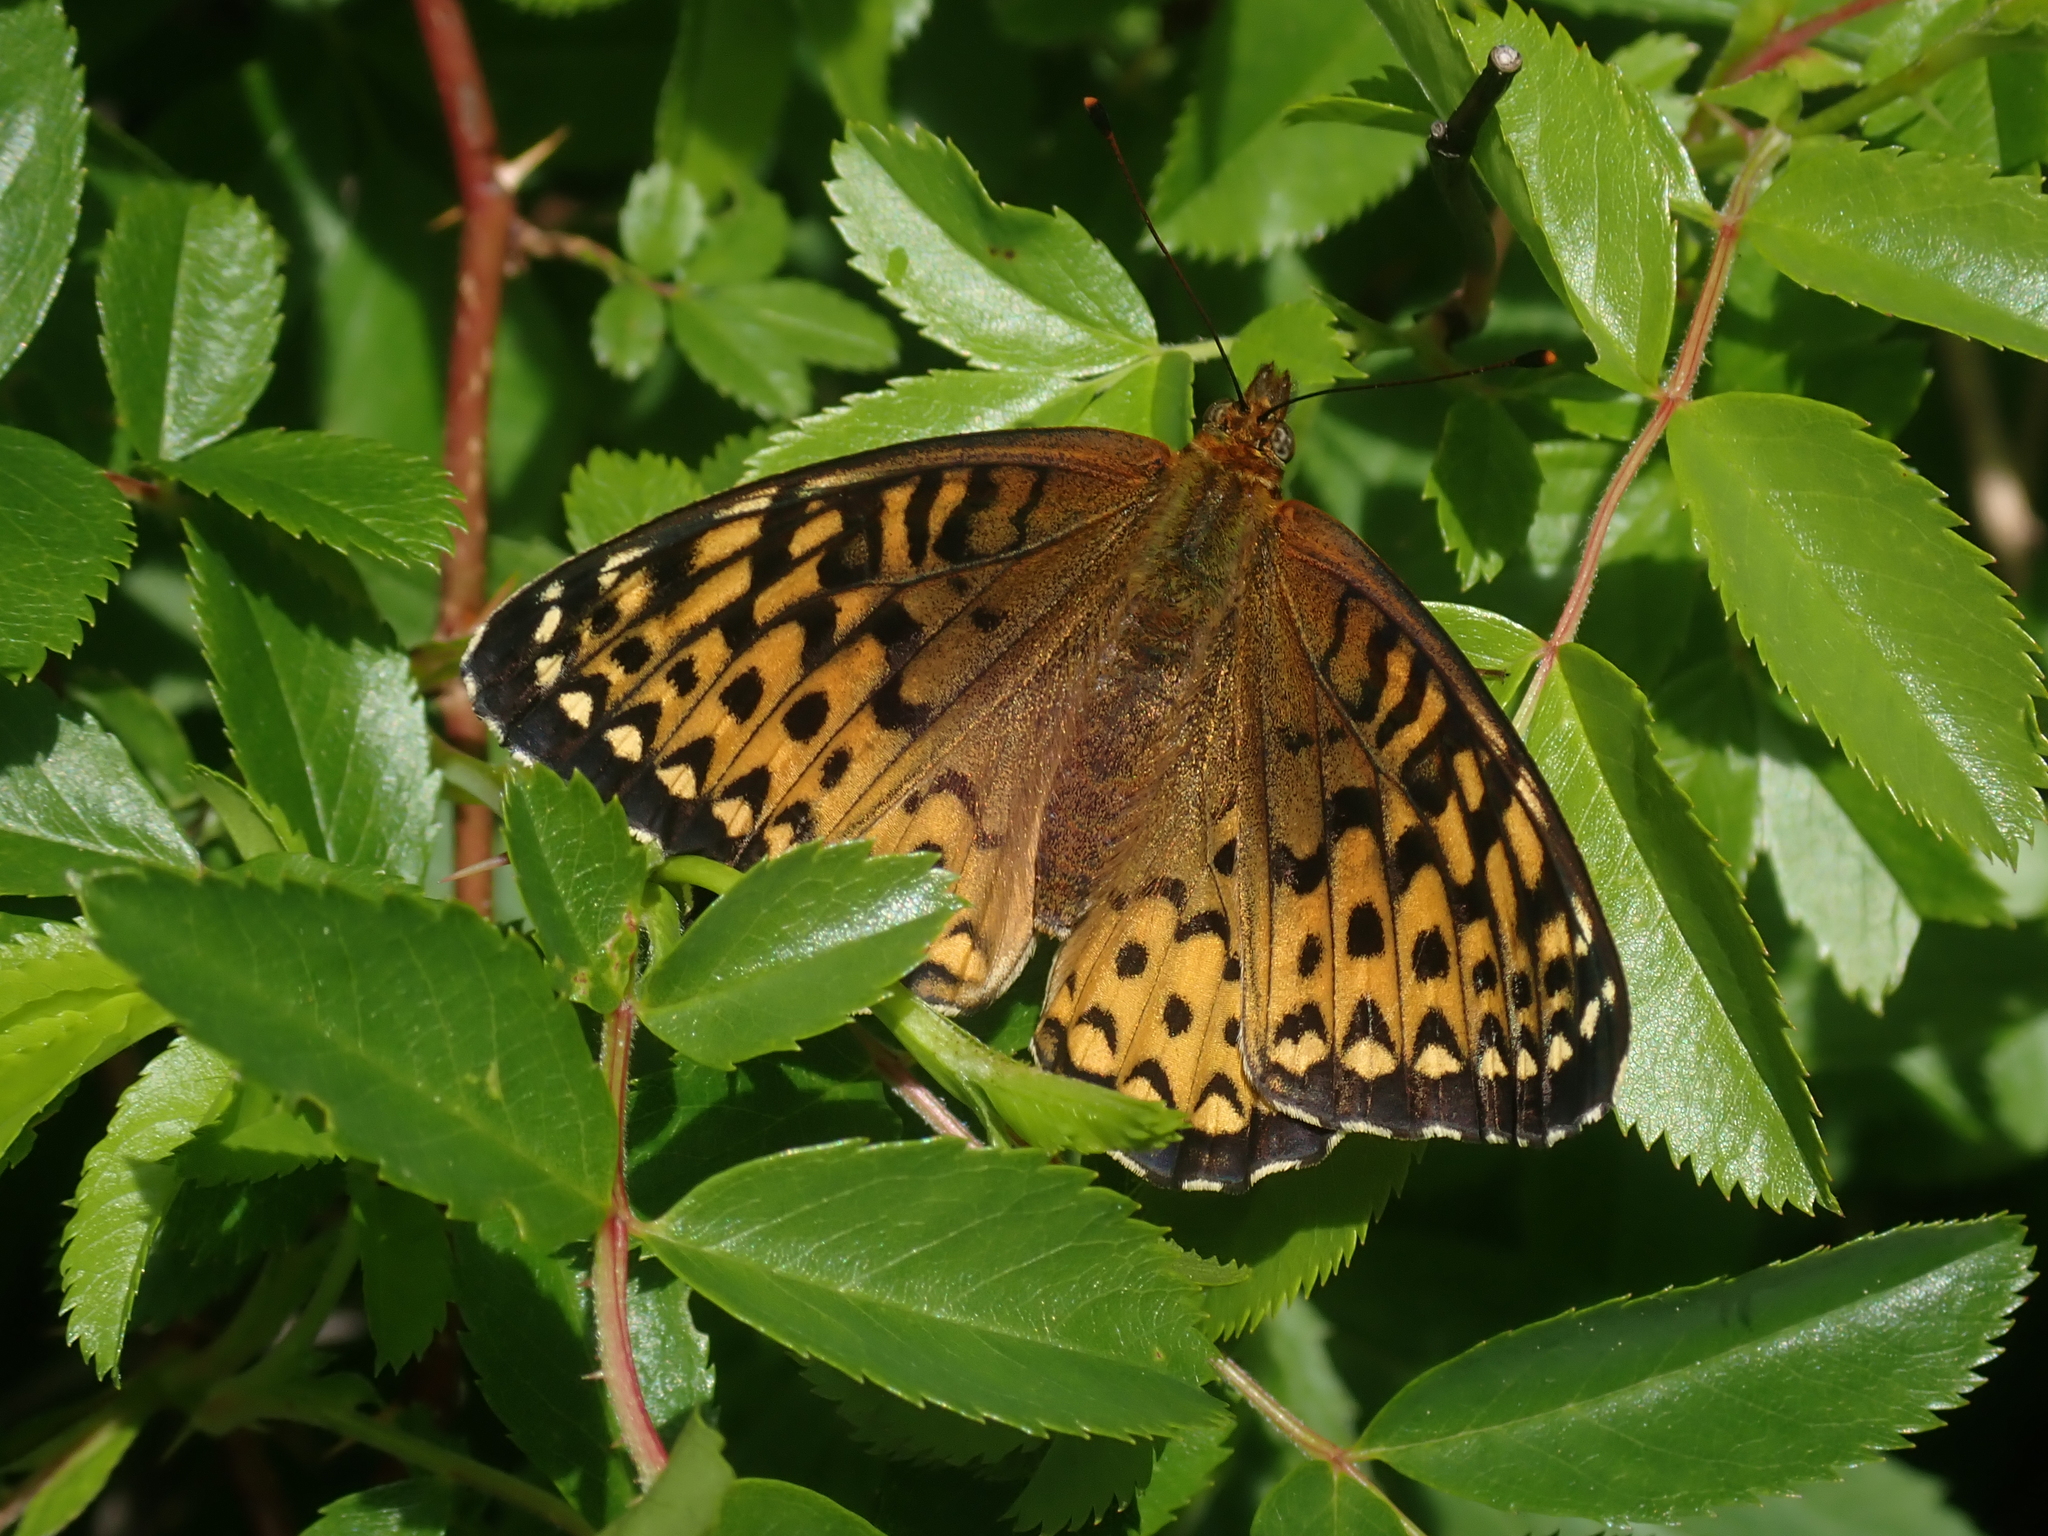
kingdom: Animalia
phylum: Arthropoda
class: Insecta
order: Lepidoptera
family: Nymphalidae
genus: Speyeria
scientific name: Speyeria atlantis
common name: Atlantis fritillary
